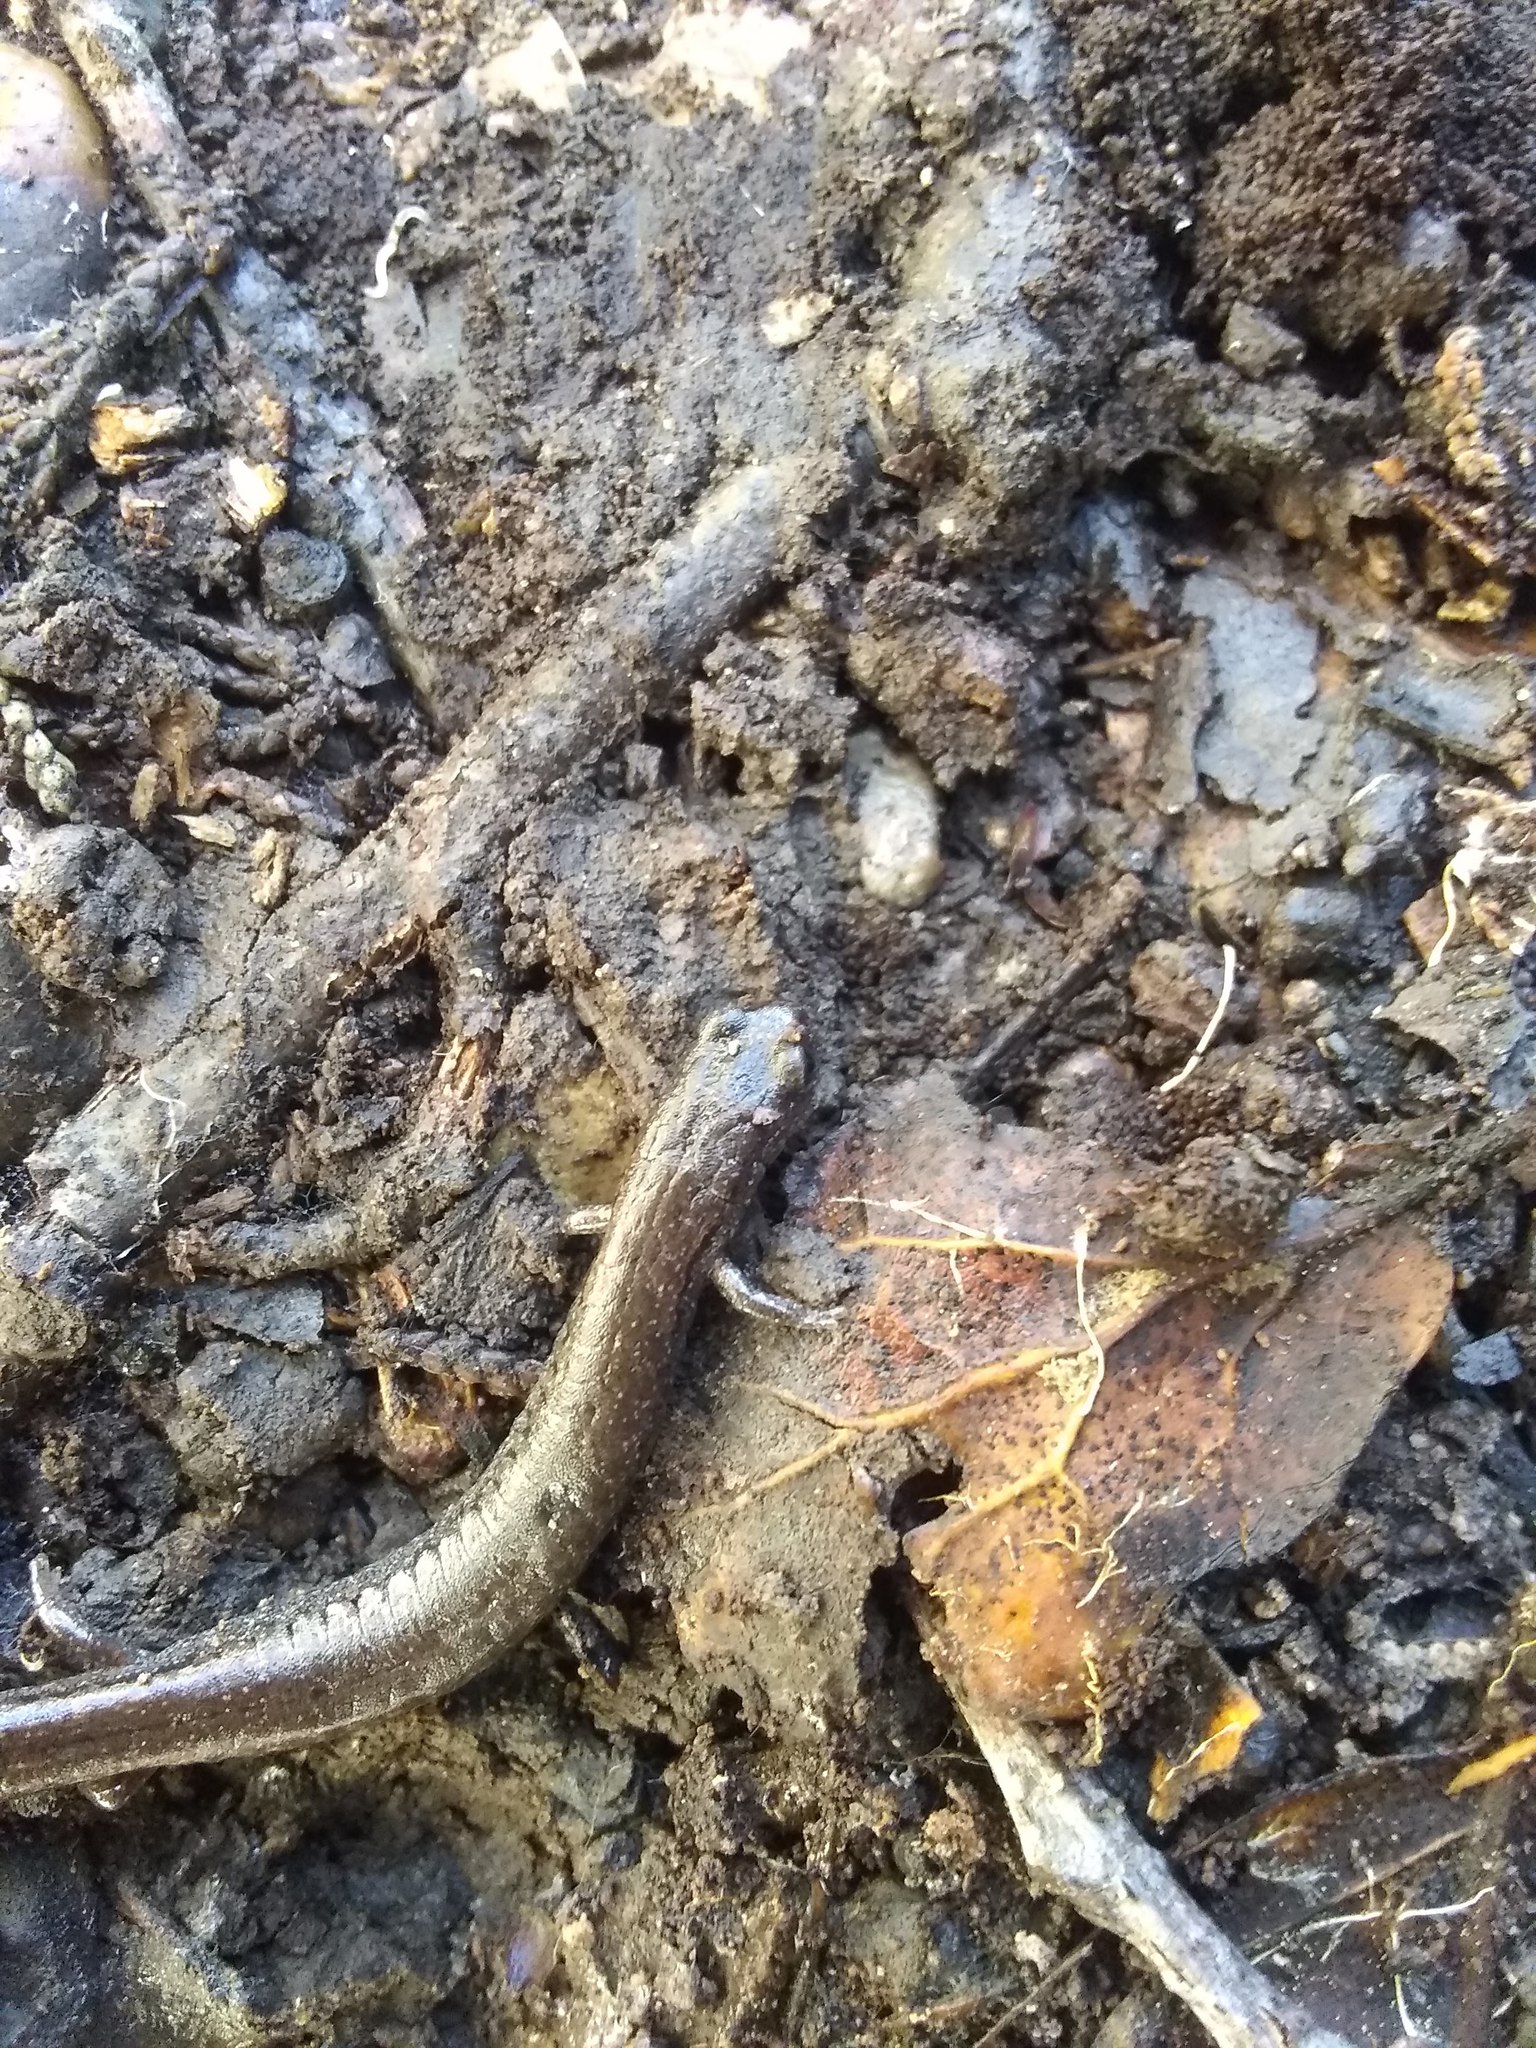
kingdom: Animalia
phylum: Chordata
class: Amphibia
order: Caudata
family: Plethodontidae
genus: Batrachoseps
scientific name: Batrachoseps attenuatus
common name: California slender salamander
